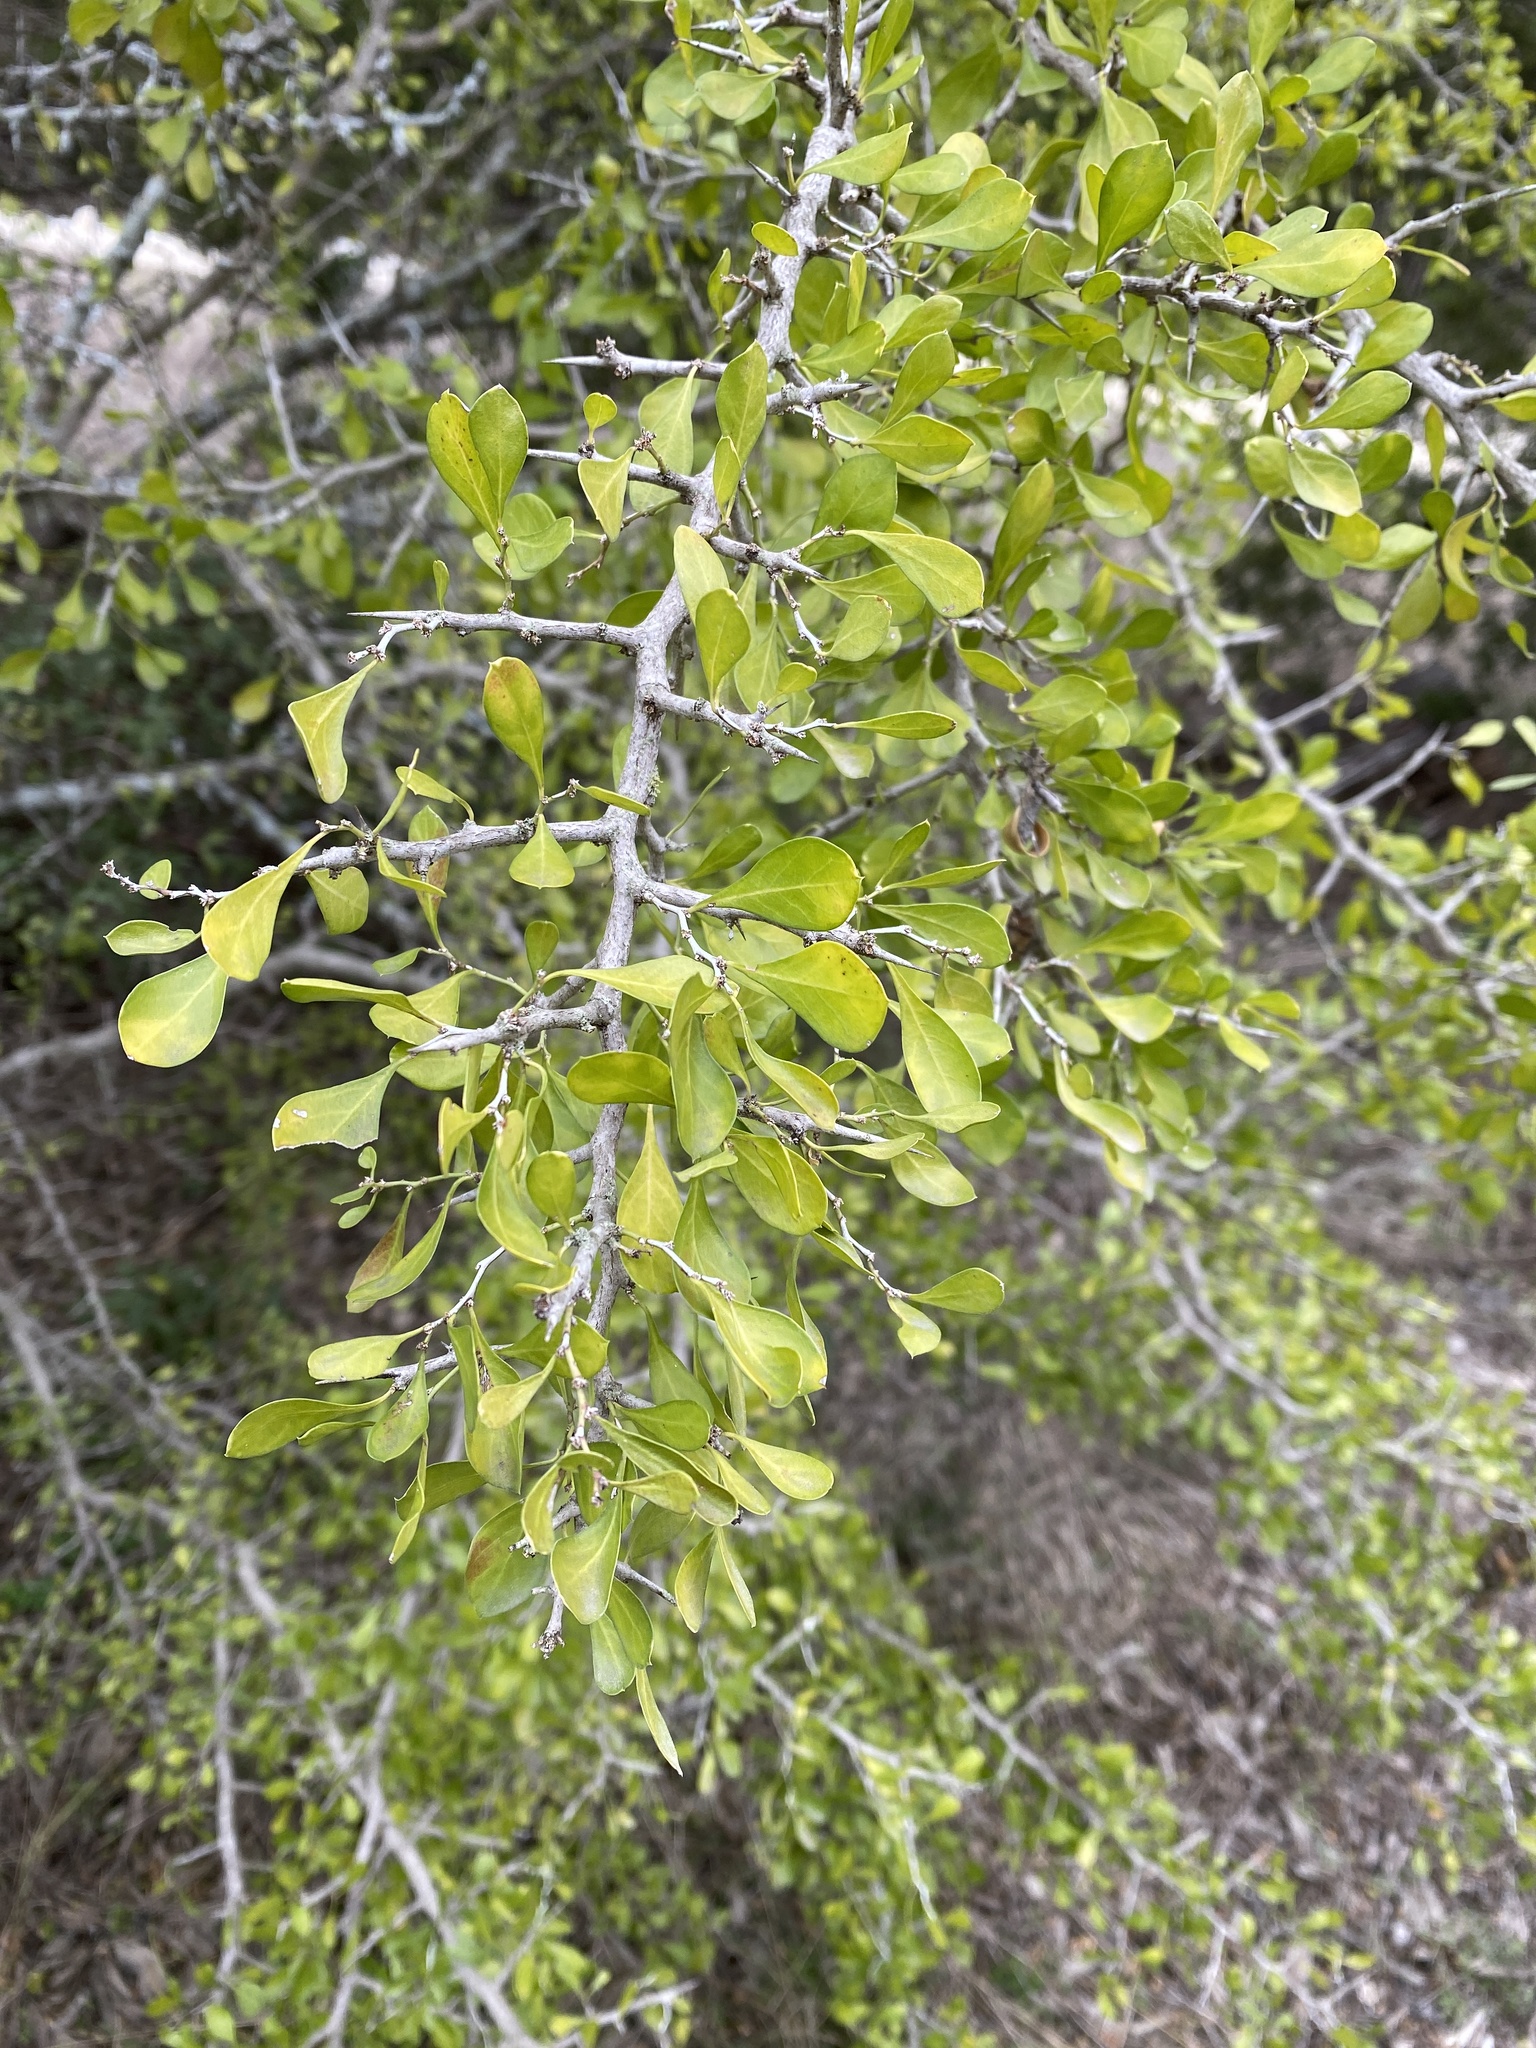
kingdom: Plantae
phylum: Tracheophyta
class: Magnoliopsida
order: Rosales
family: Rhamnaceae
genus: Condalia
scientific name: Condalia hookeri
